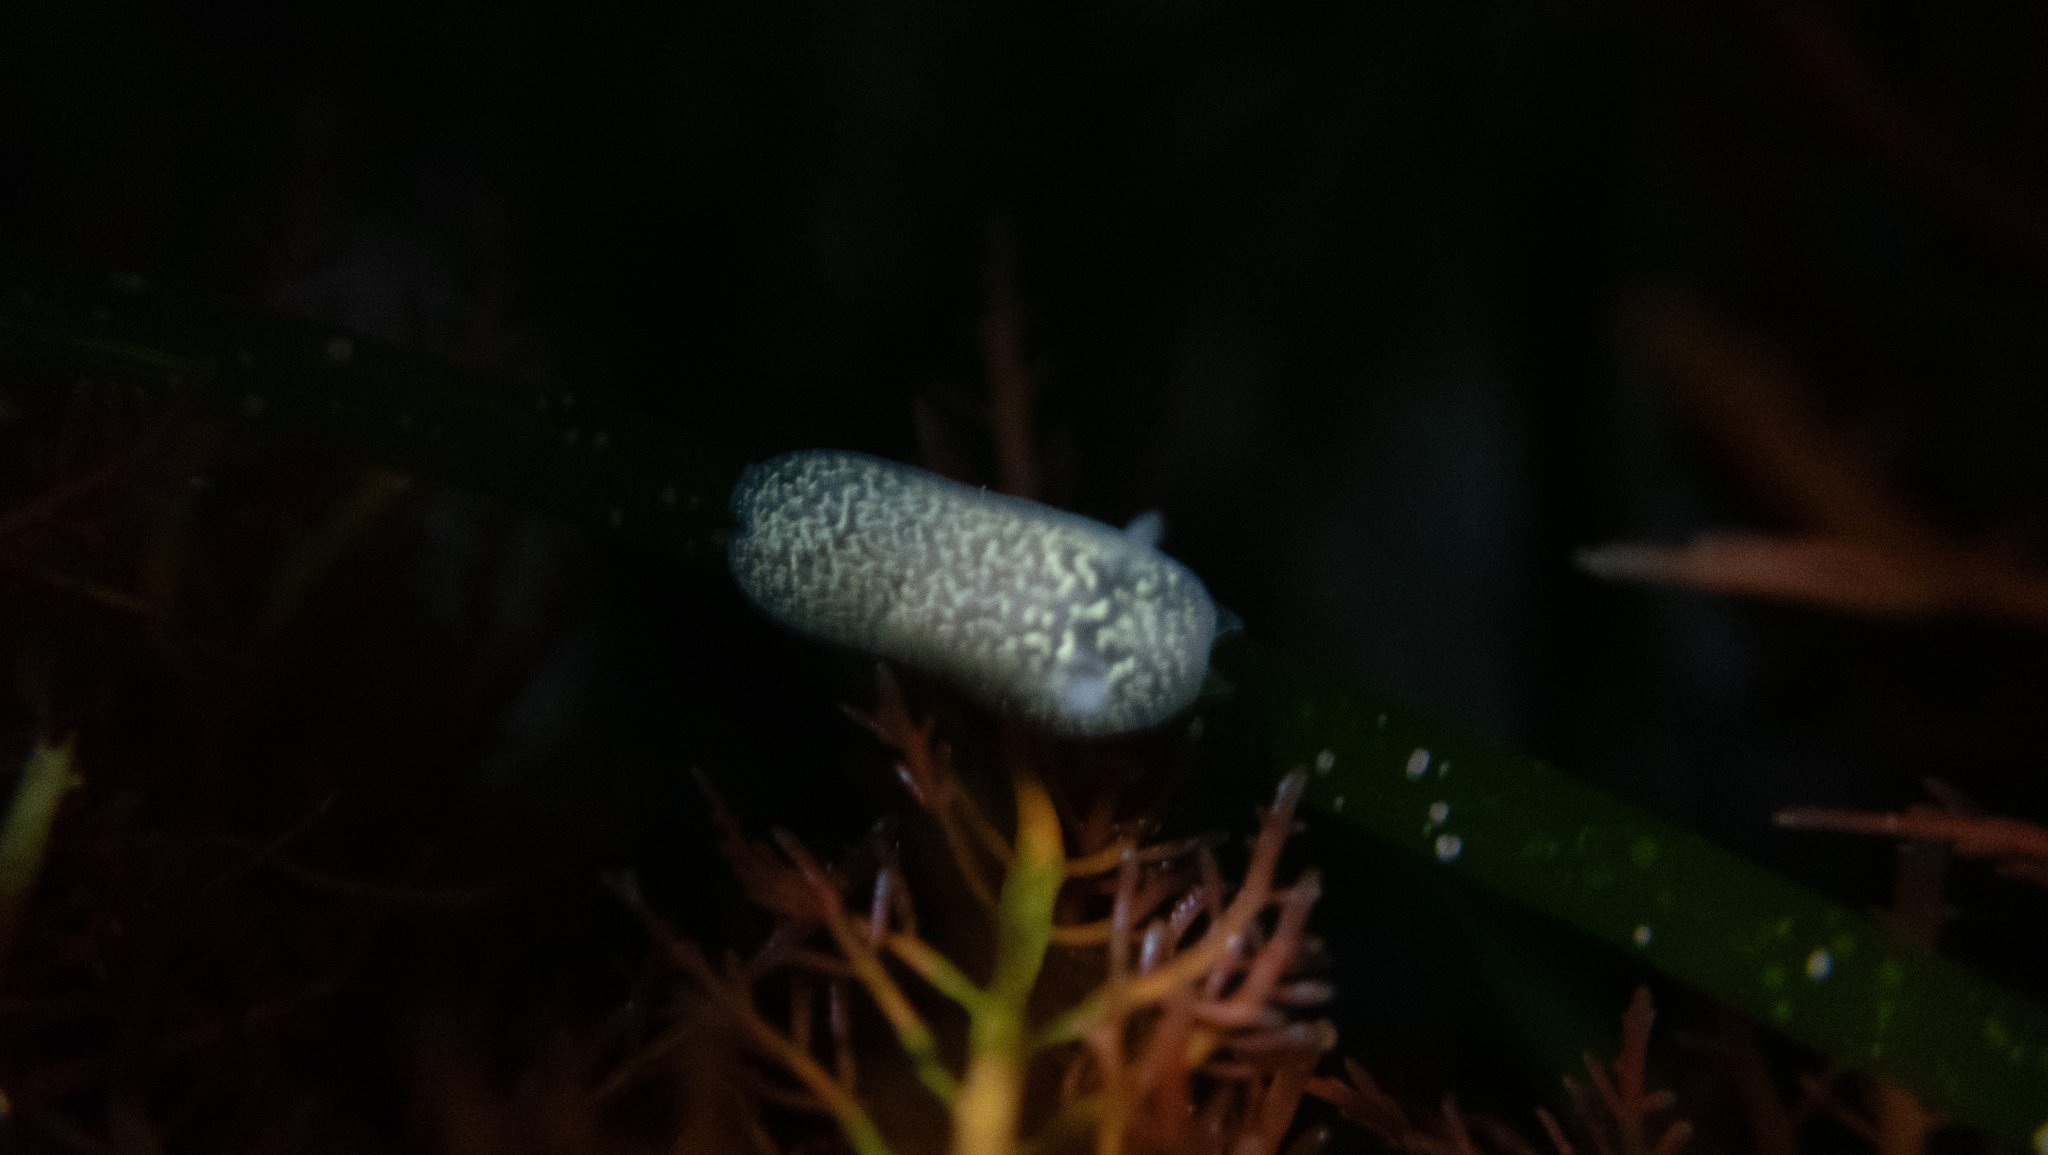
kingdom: Animalia
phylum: Mollusca
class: Gastropoda
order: Nudibranchia
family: Corambidae
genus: Corambe
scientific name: Corambe pacifica
